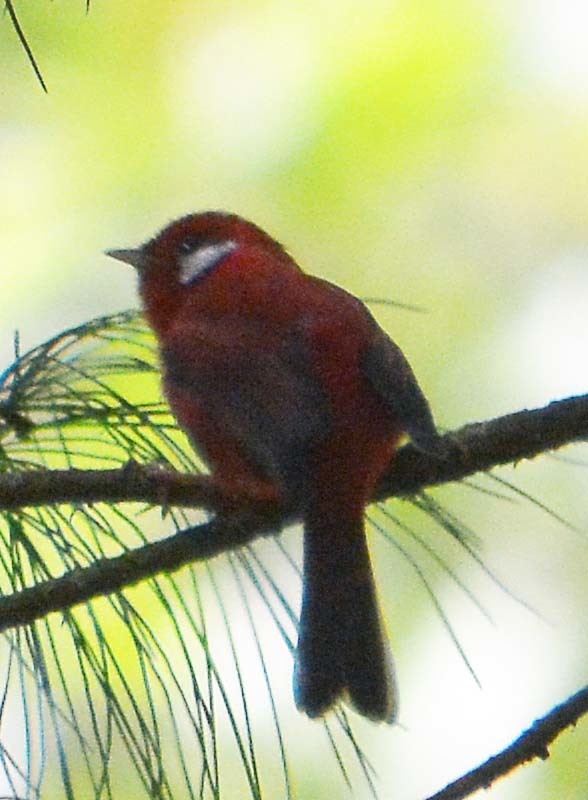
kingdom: Animalia
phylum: Chordata
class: Aves
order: Passeriformes
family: Parulidae
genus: Cardellina
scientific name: Cardellina rubra
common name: Red warbler
